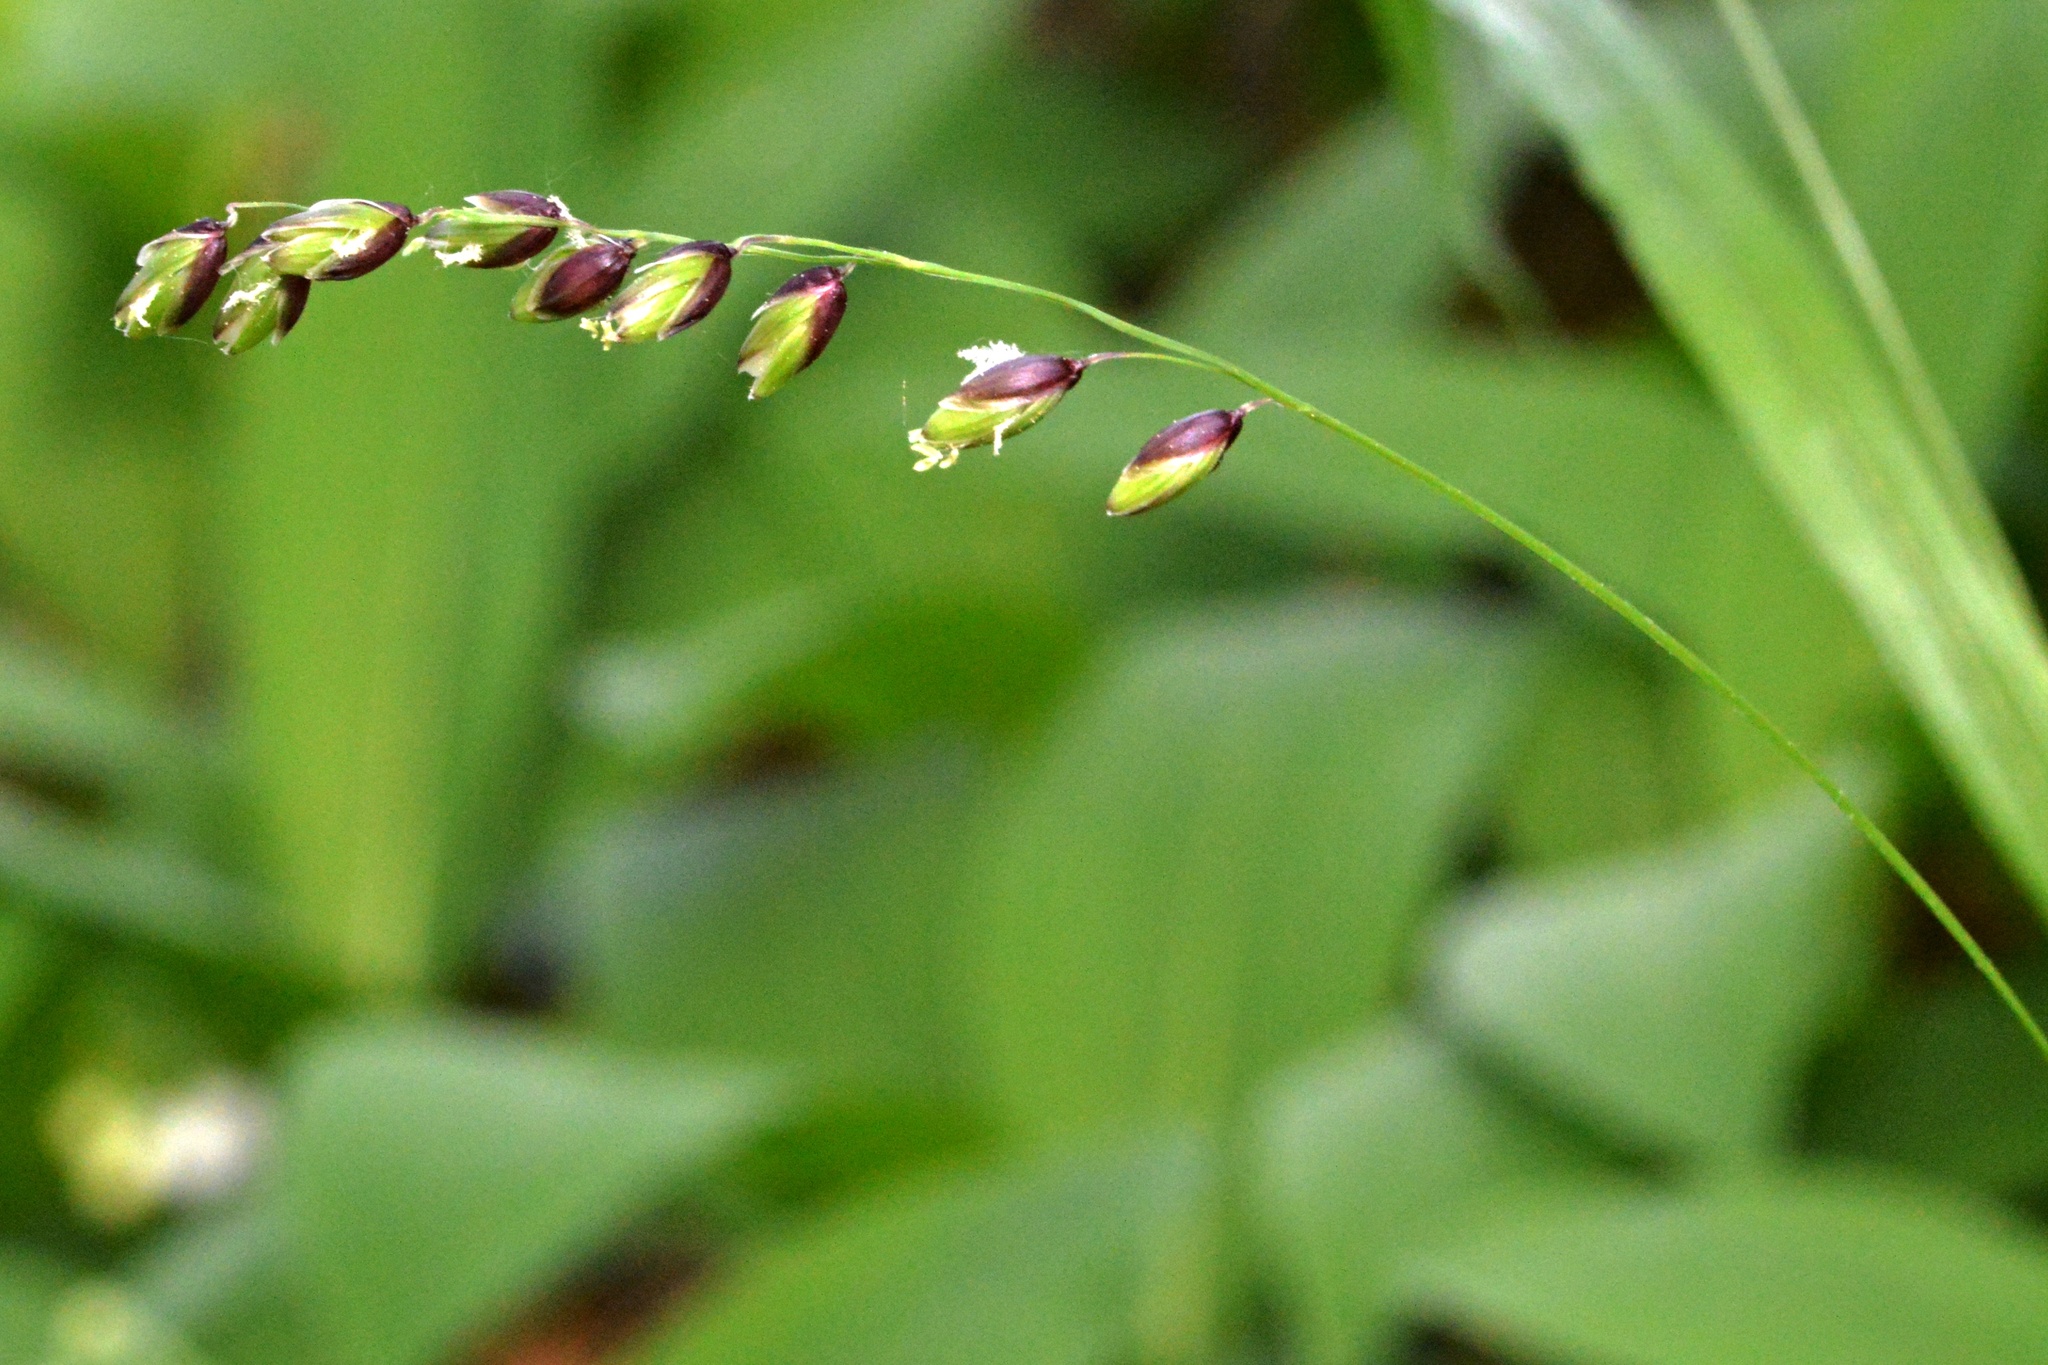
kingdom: Plantae
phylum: Tracheophyta
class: Liliopsida
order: Poales
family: Poaceae
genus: Melica
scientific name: Melica nutans
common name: Mountain melick
